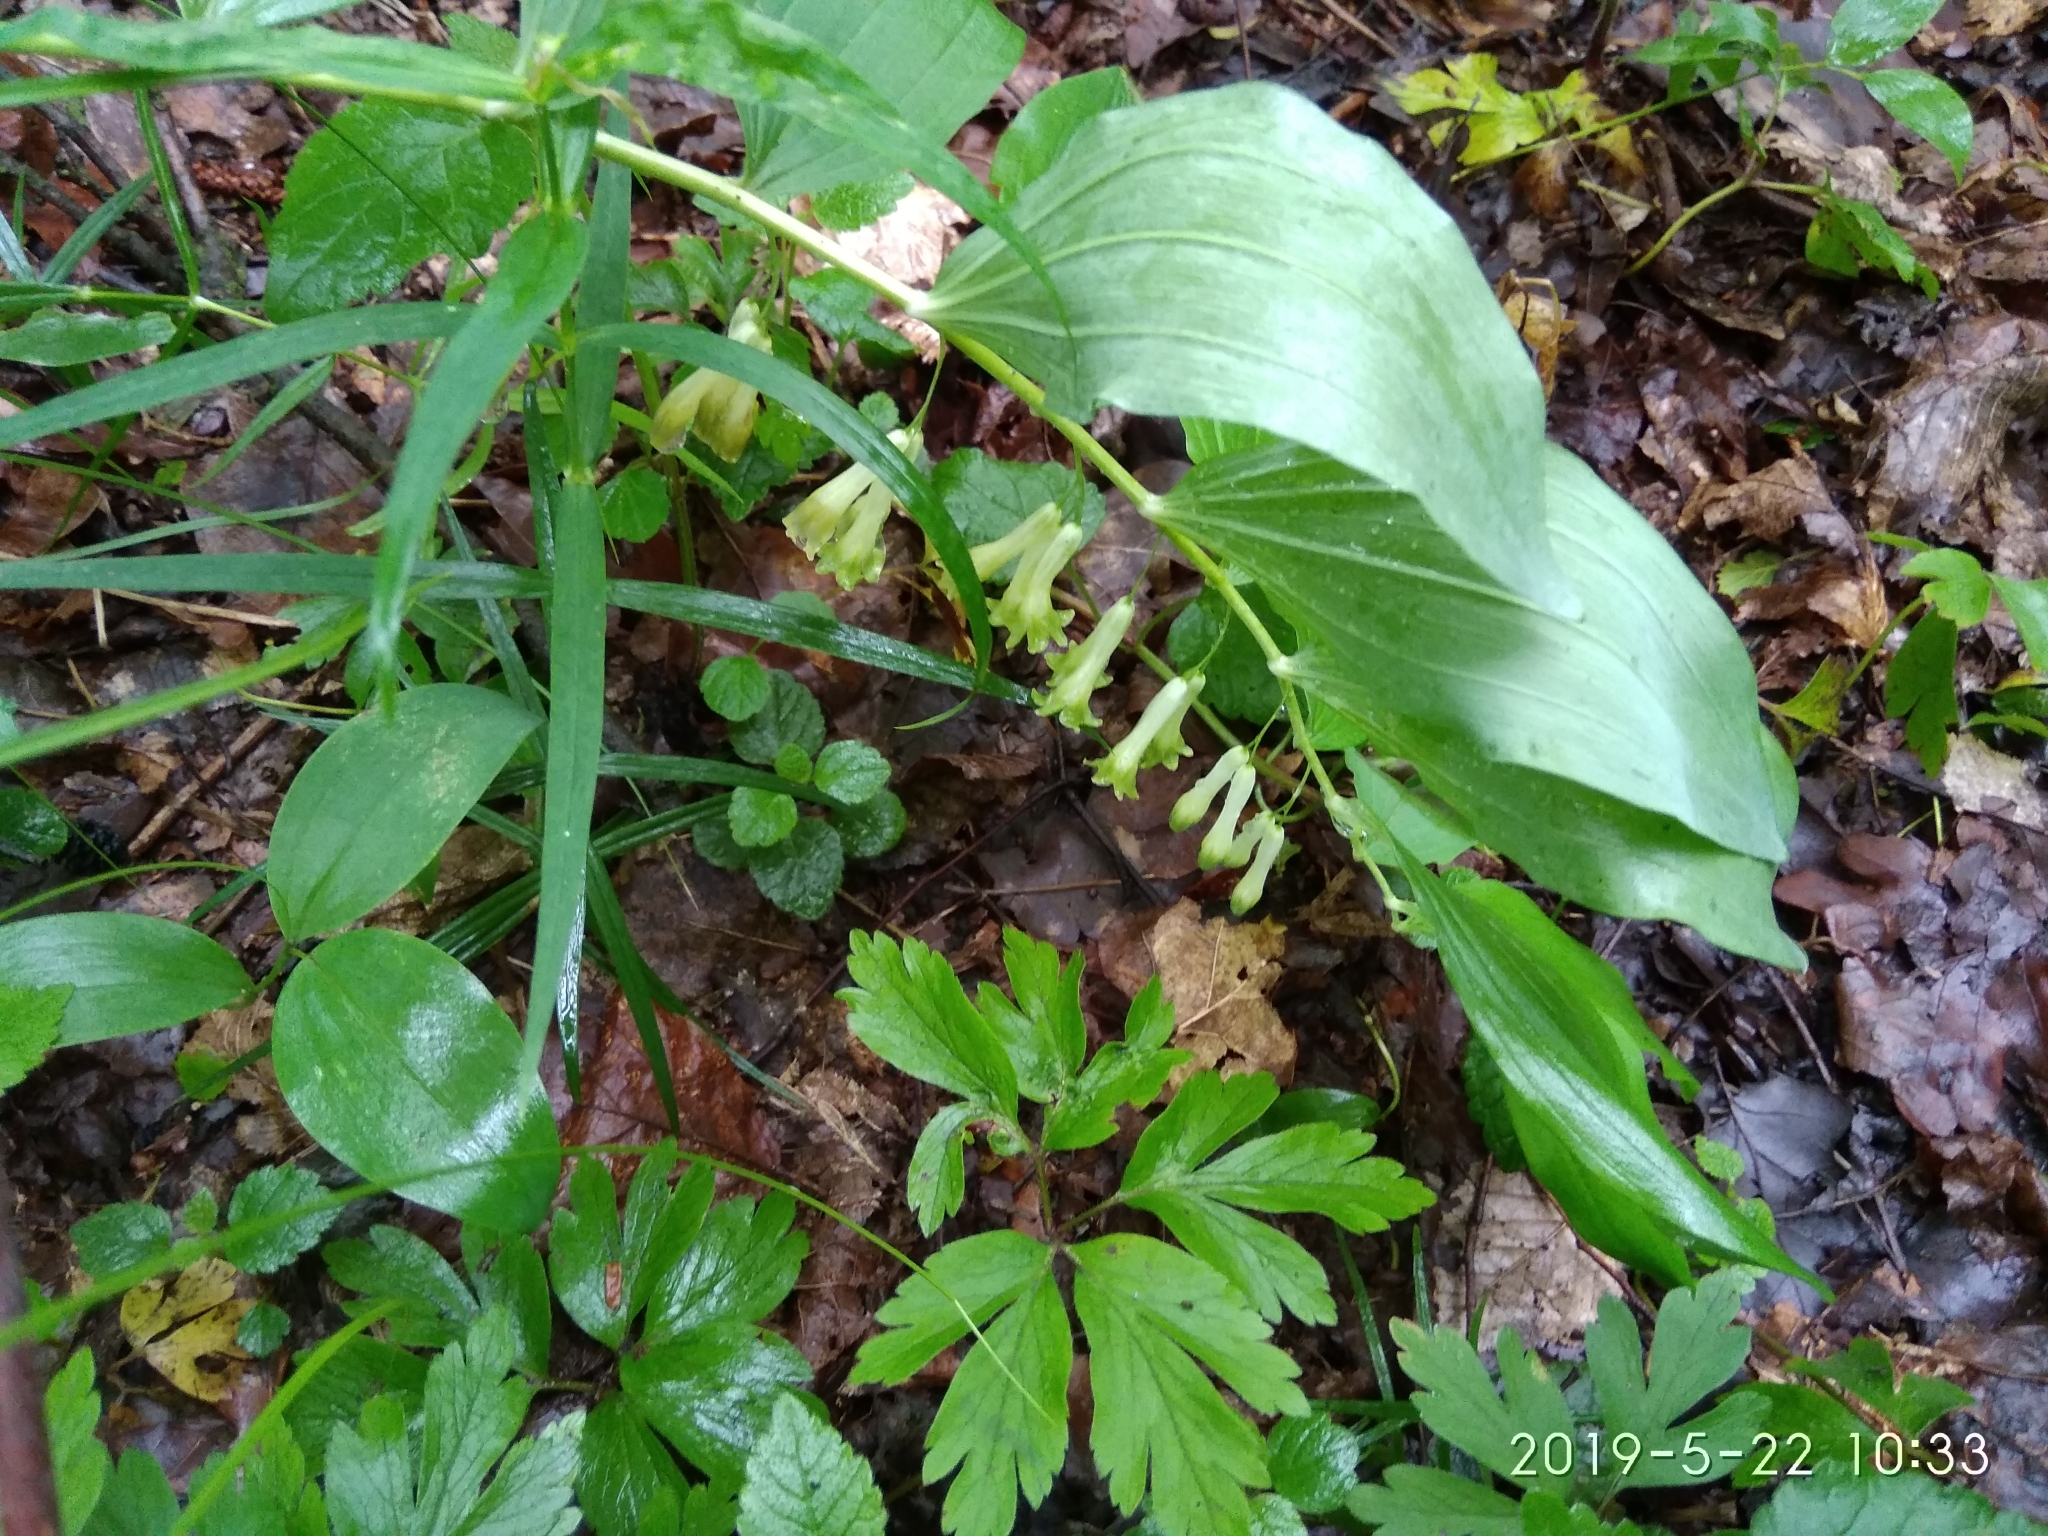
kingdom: Plantae
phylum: Tracheophyta
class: Liliopsida
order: Asparagales
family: Asparagaceae
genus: Polygonatum
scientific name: Polygonatum multiflorum
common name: Solomon's-seal
